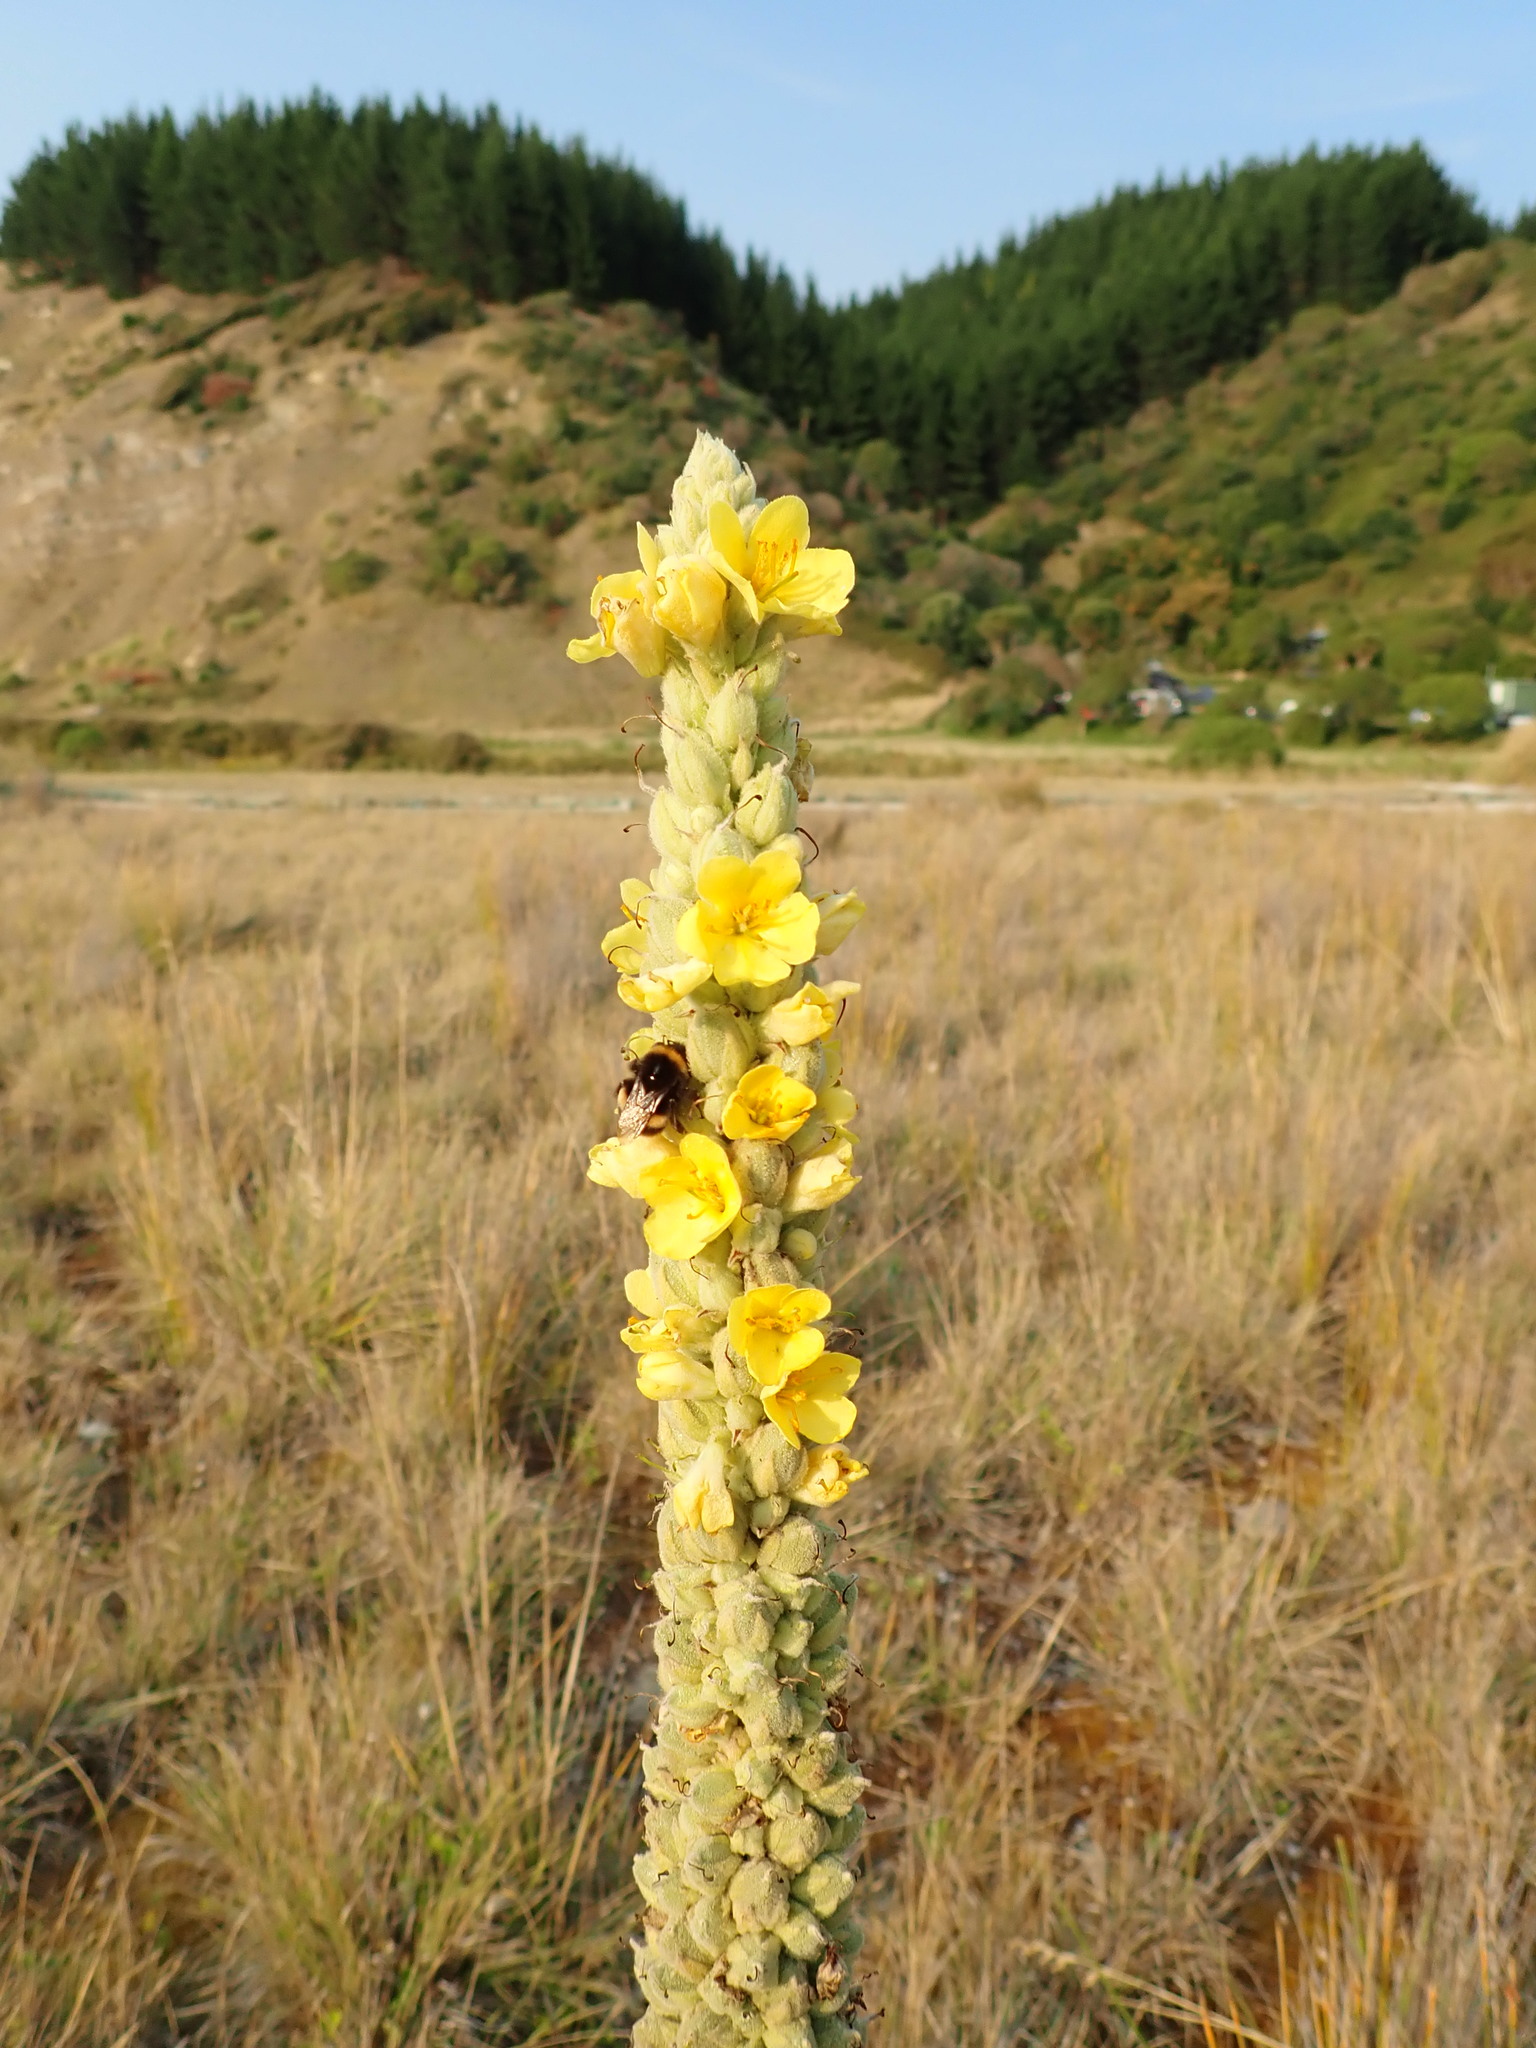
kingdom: Animalia
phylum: Arthropoda
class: Insecta
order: Hymenoptera
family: Apidae
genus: Bombus
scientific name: Bombus terrestris
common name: Buff-tailed bumblebee
